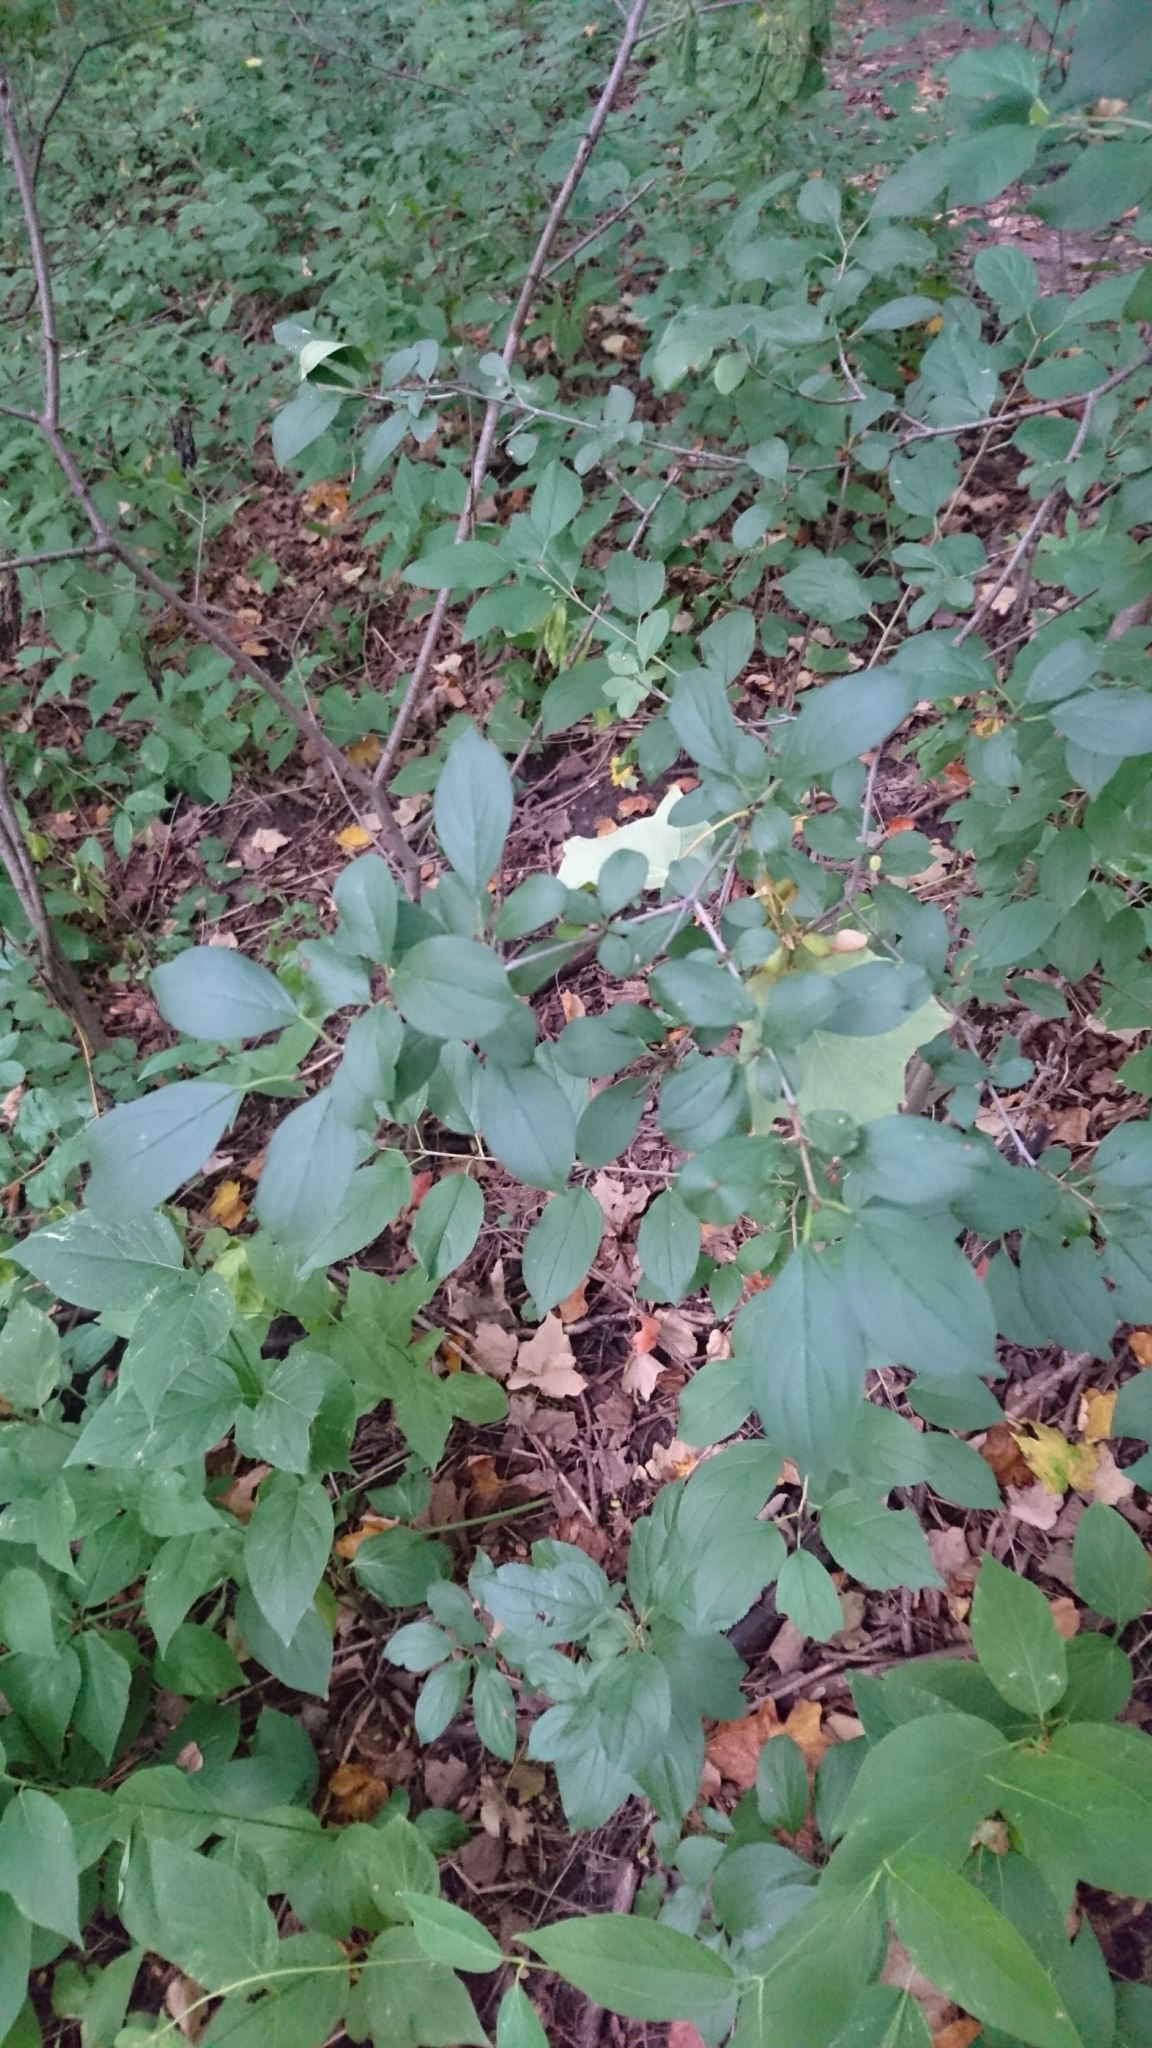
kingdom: Plantae
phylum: Tracheophyta
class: Magnoliopsida
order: Rosales
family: Rhamnaceae
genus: Rhamnus
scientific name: Rhamnus cathartica
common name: Common buckthorn
